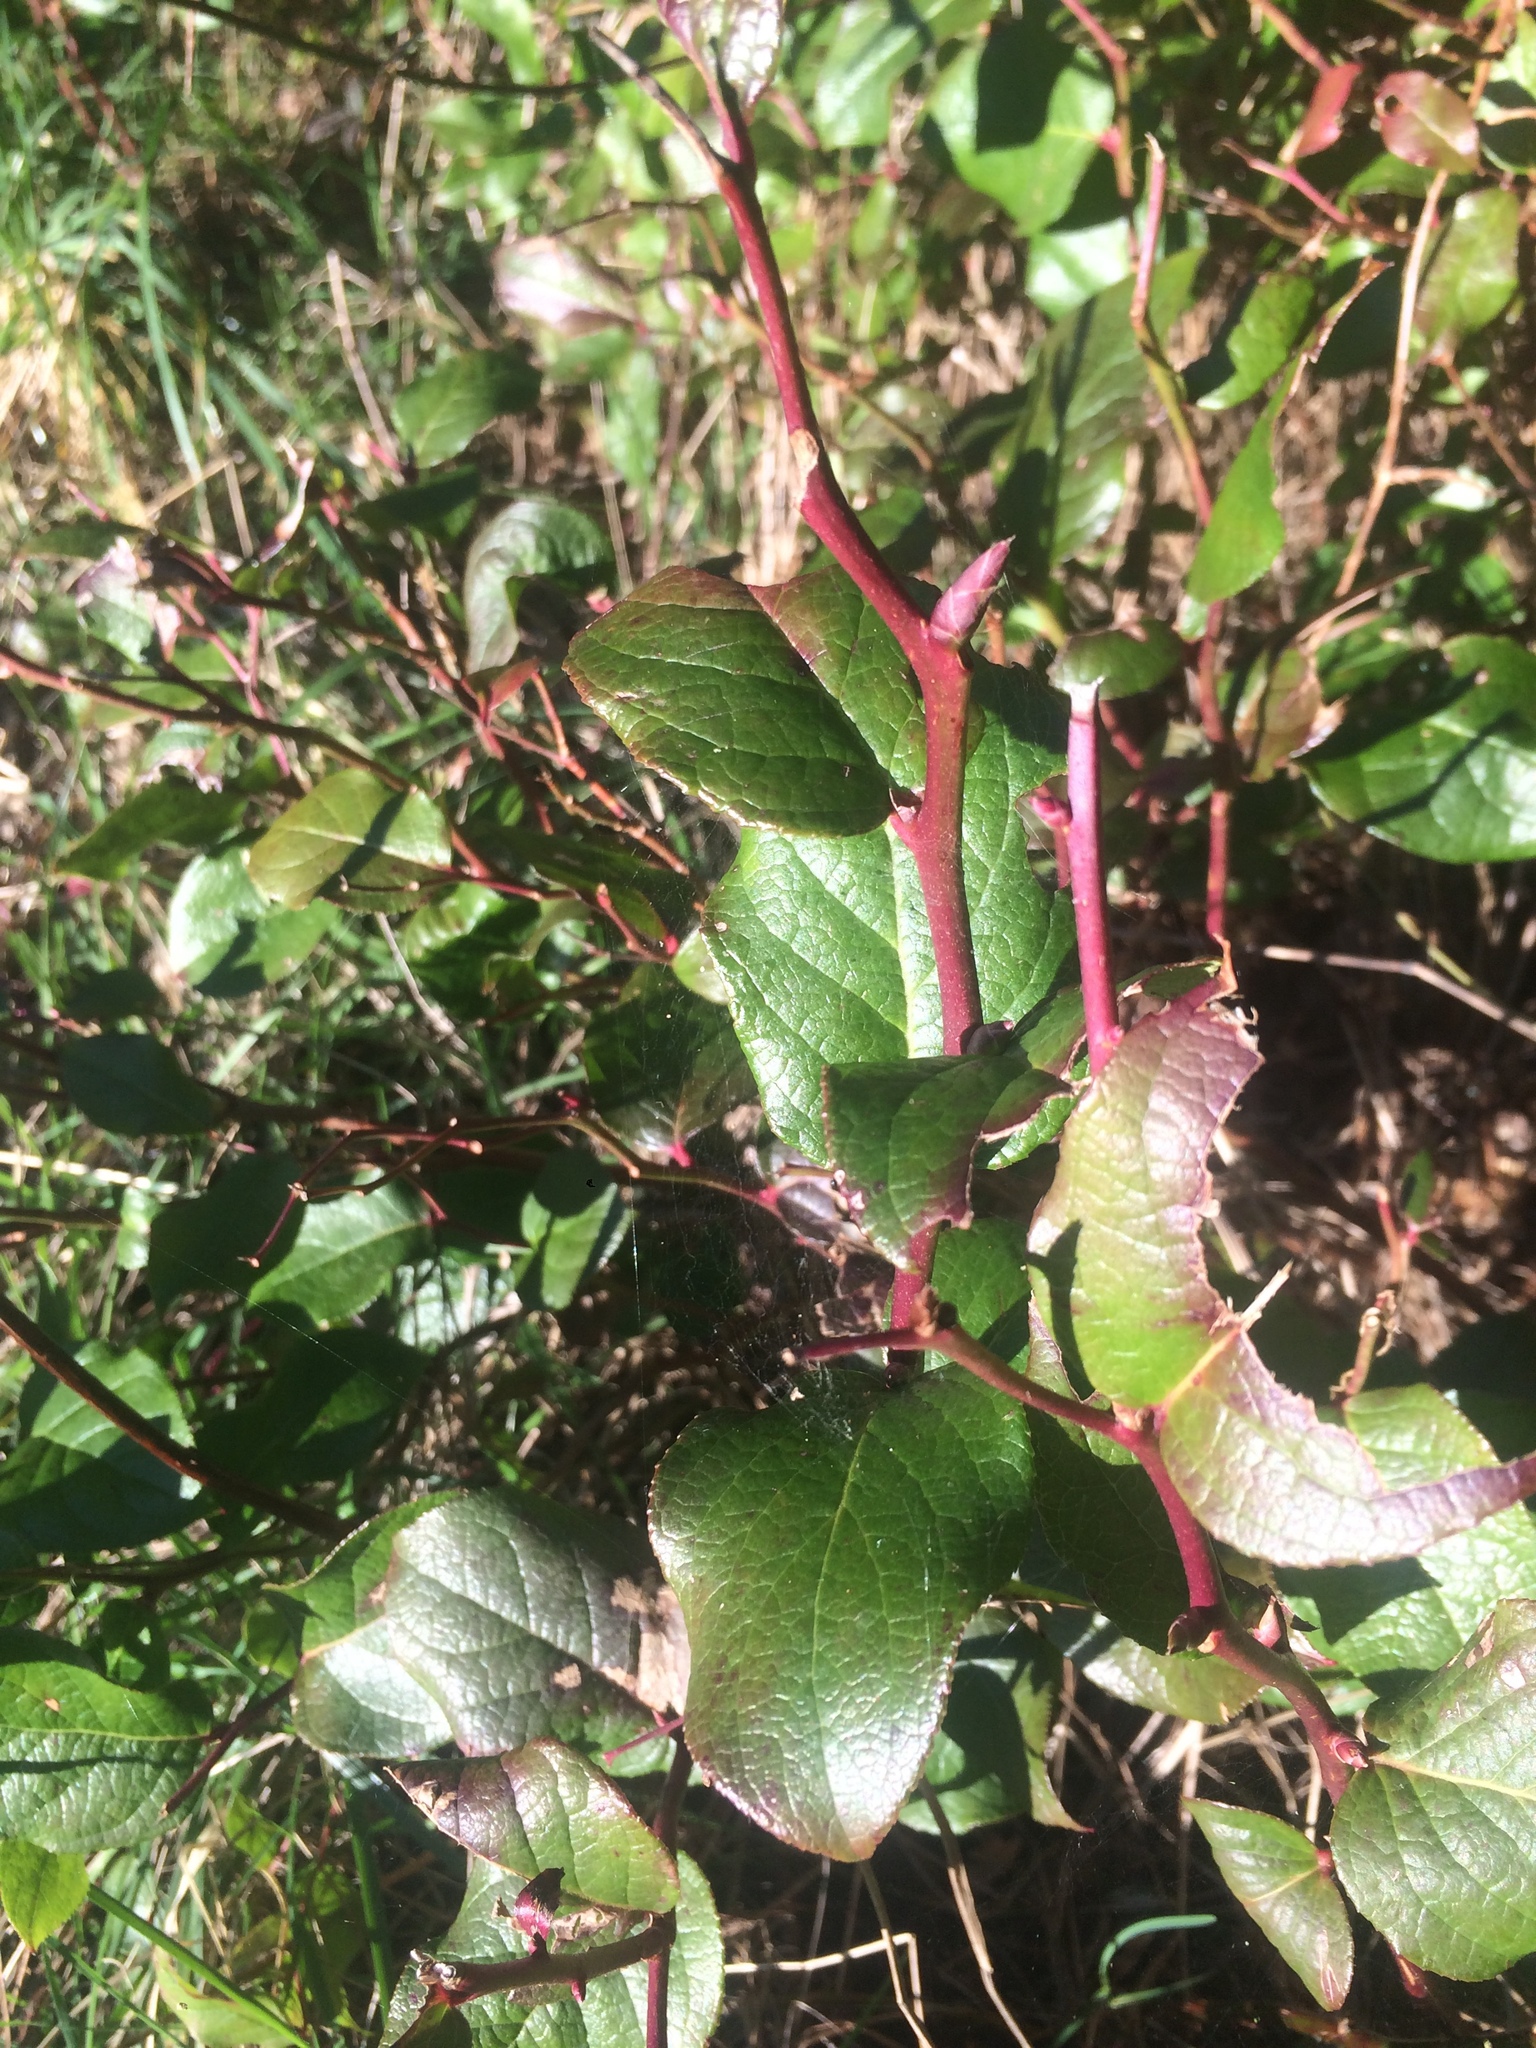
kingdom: Plantae
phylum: Tracheophyta
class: Magnoliopsida
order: Ericales
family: Ericaceae
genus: Gaultheria
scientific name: Gaultheria shallon
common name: Shallon
